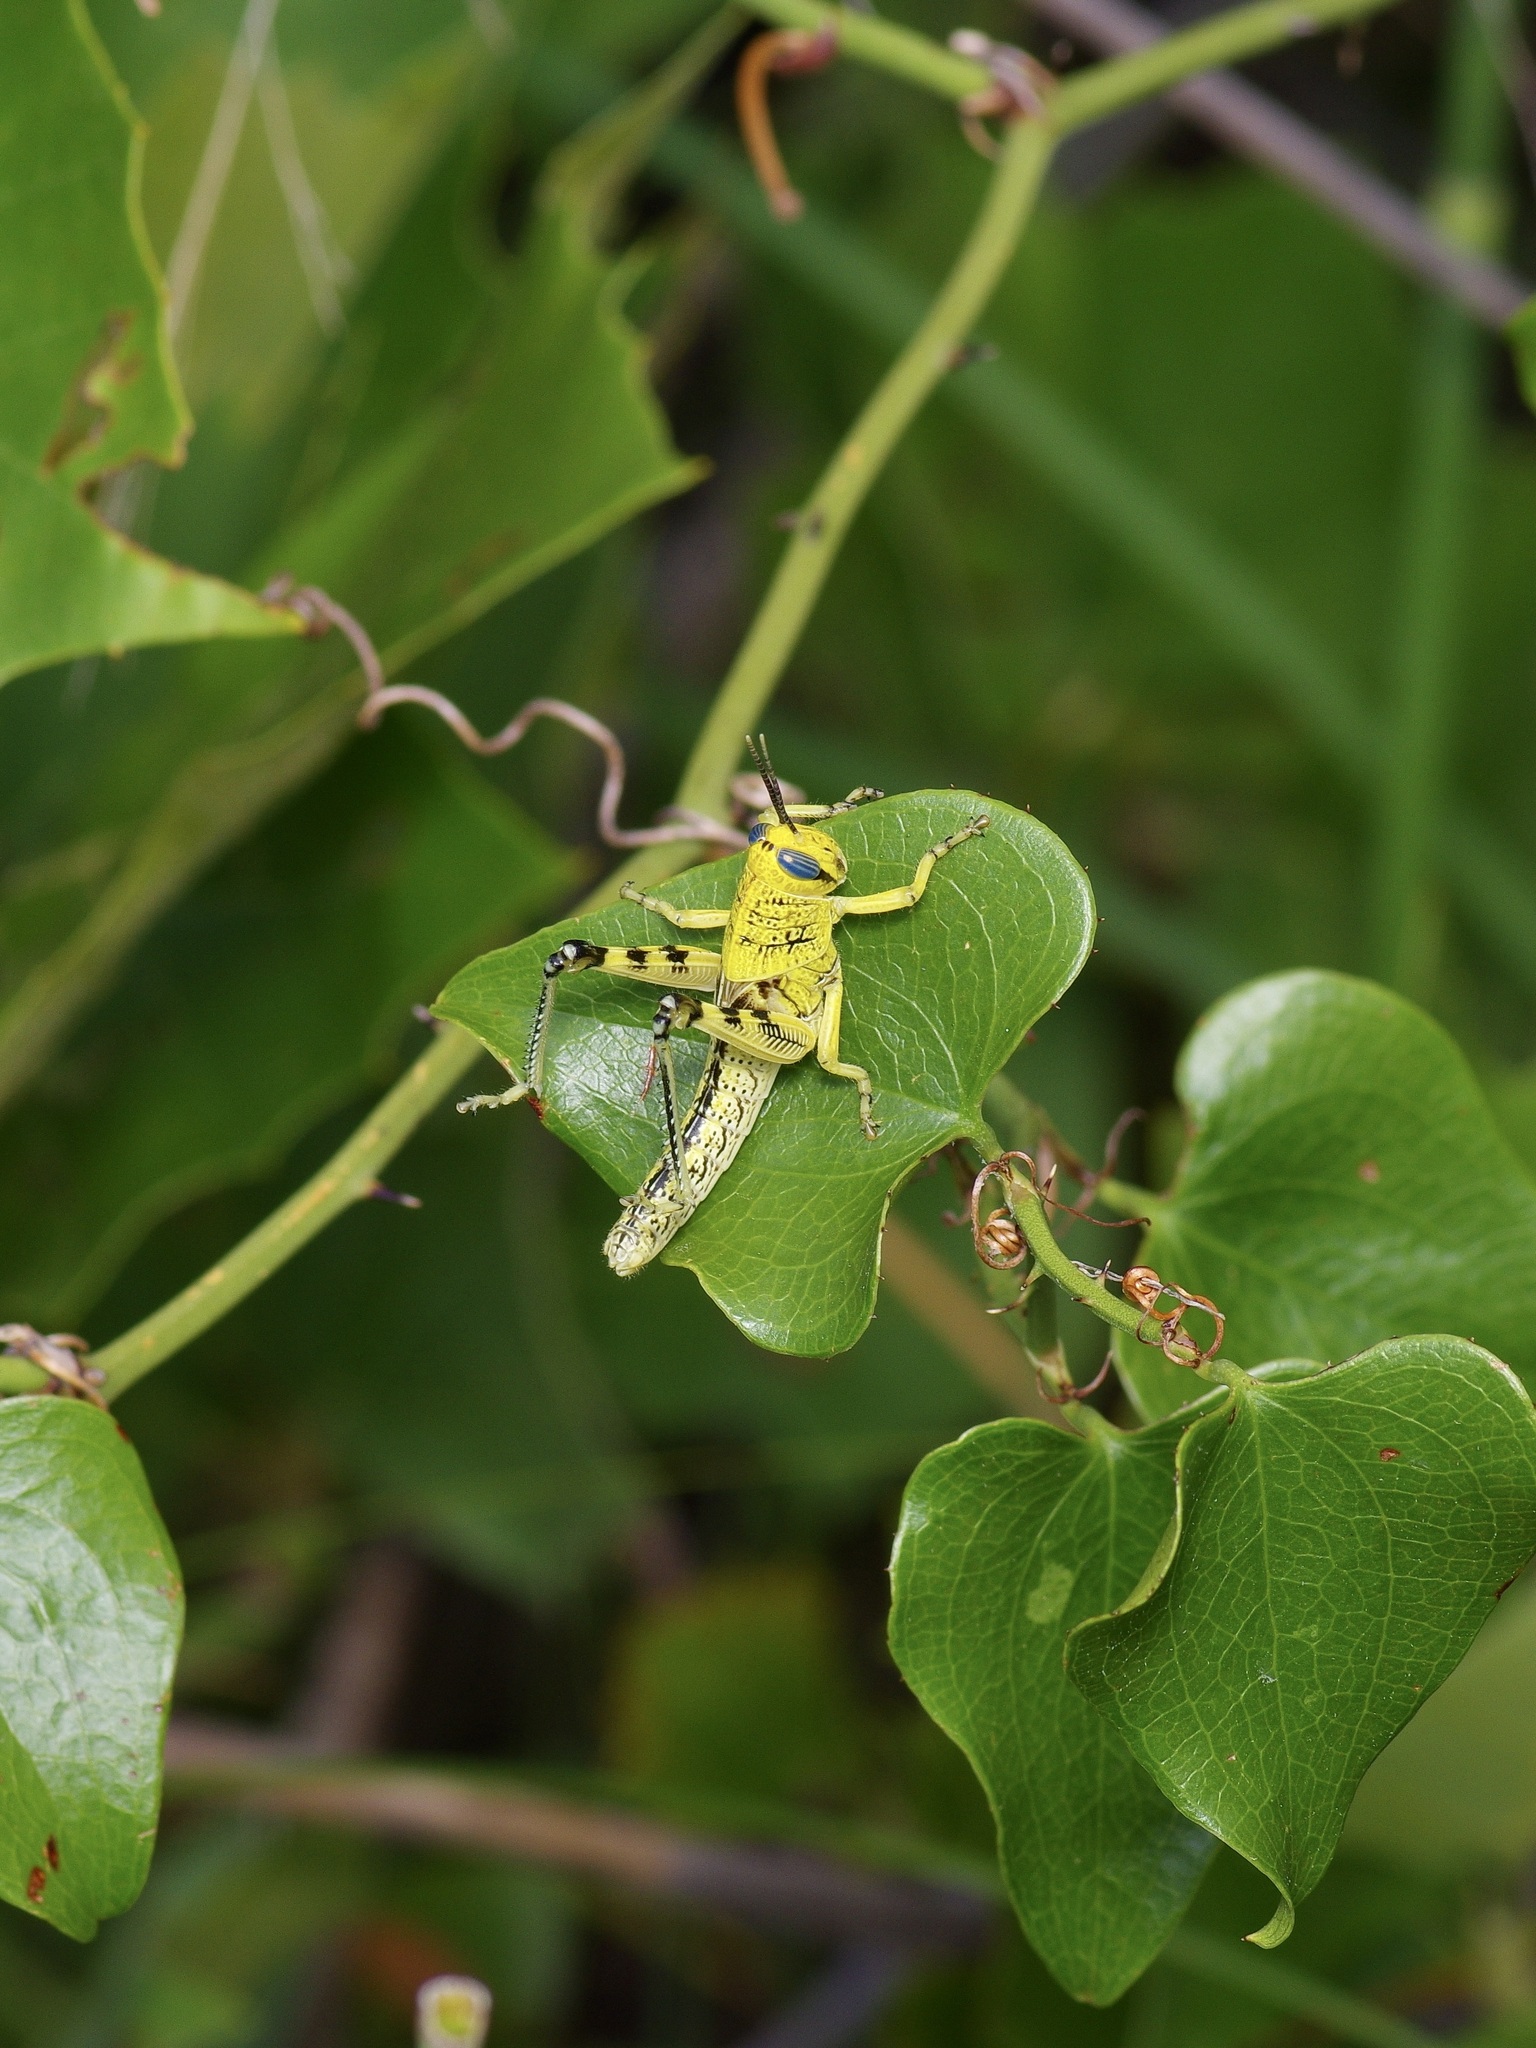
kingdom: Animalia
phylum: Arthropoda
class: Insecta
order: Orthoptera
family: Acrididae
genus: Schistocerca
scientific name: Schistocerca lineata
